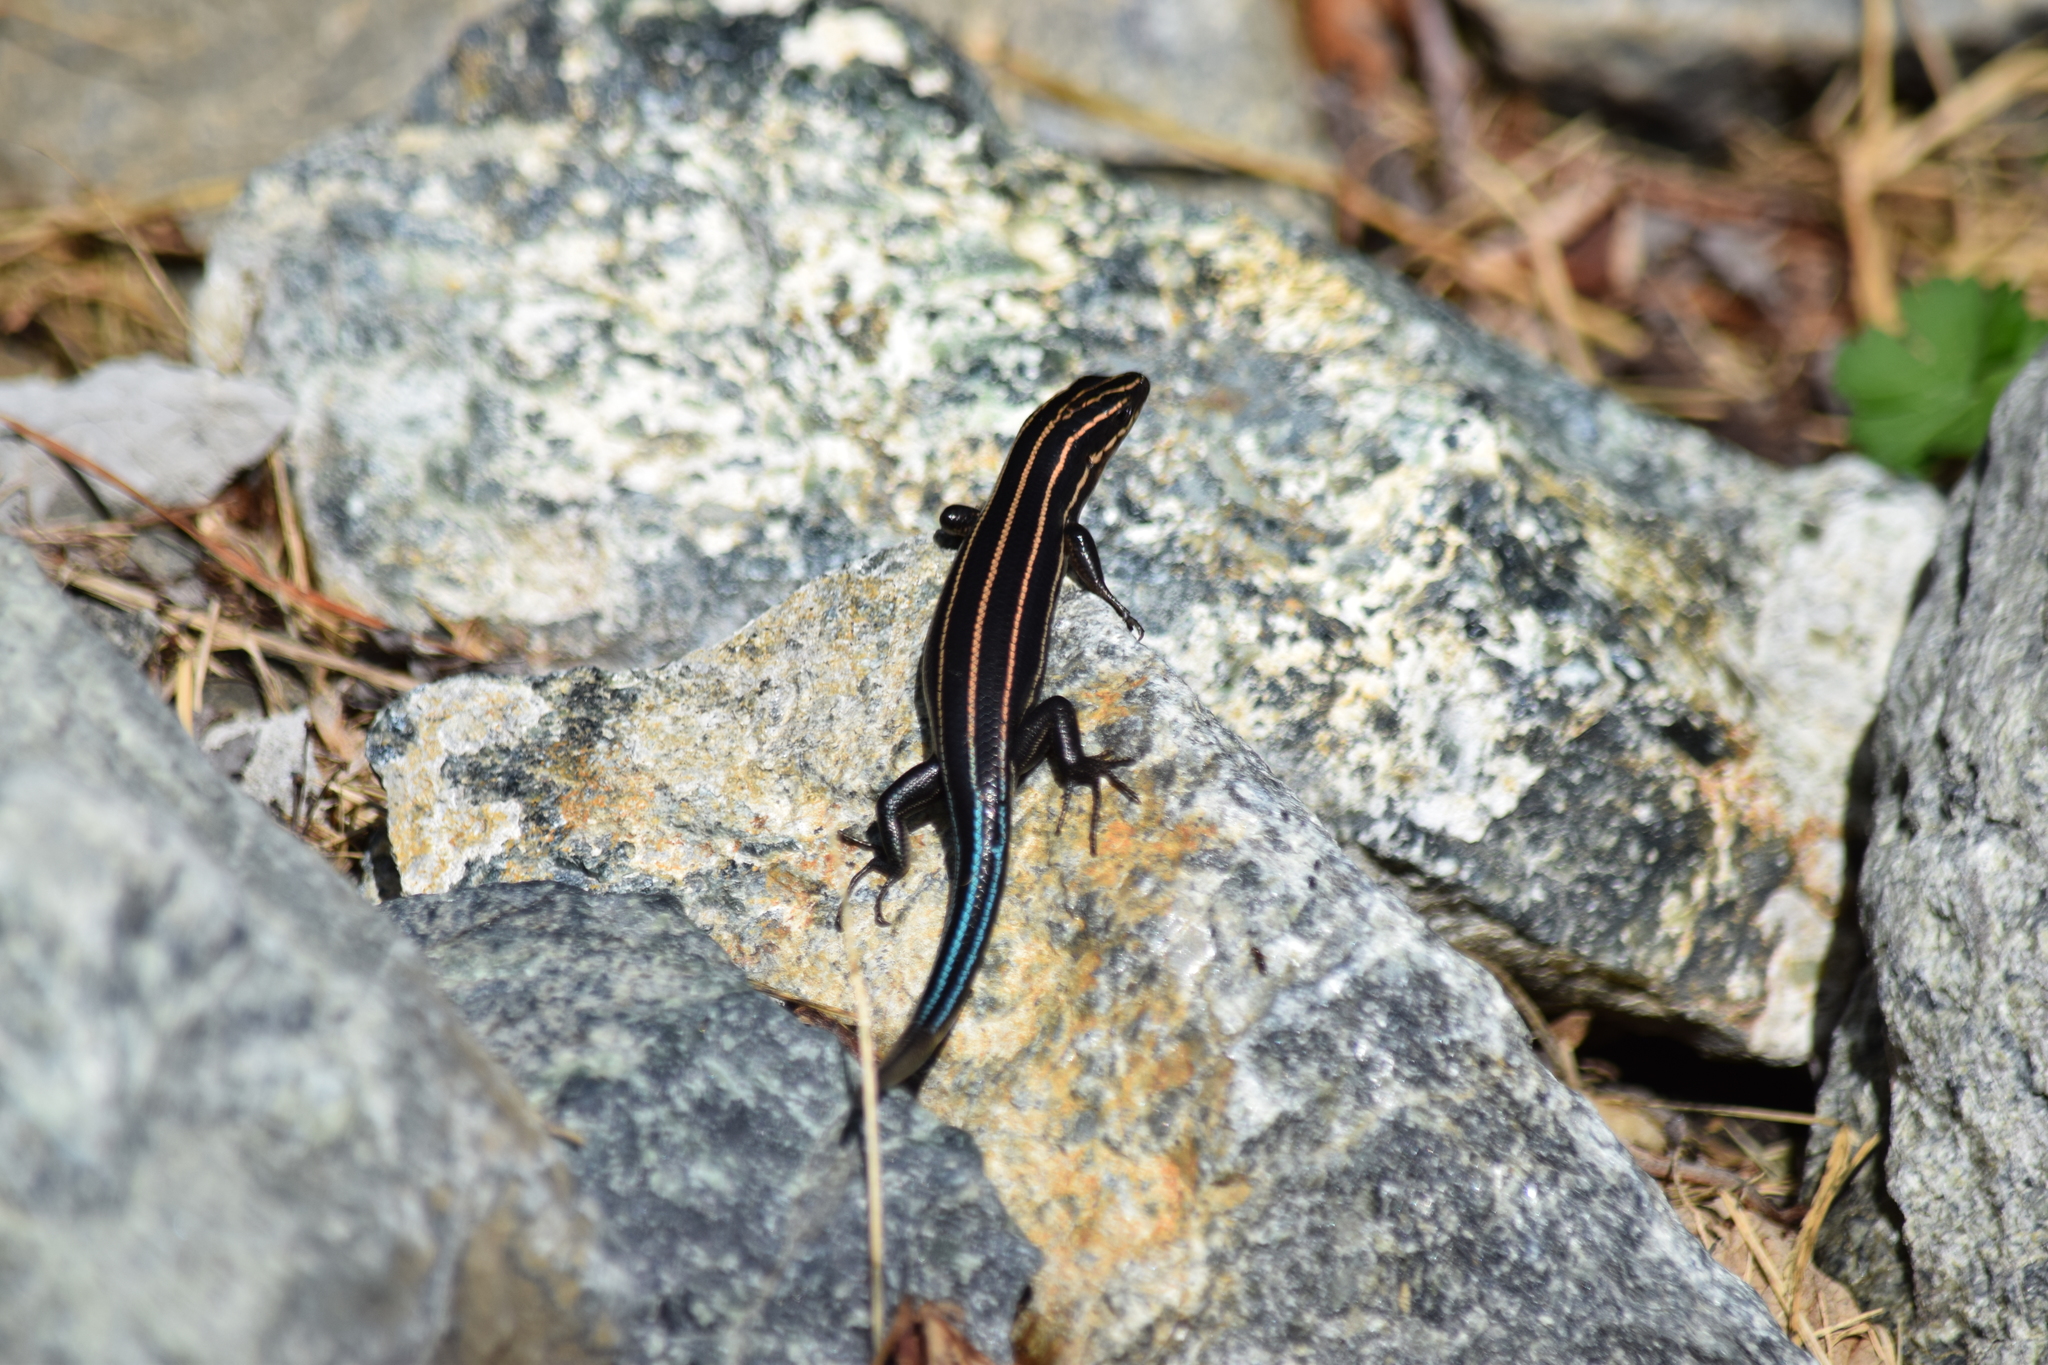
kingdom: Animalia
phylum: Chordata
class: Squamata
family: Scincidae
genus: Plestiodon
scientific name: Plestiodon fasciatus
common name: Five-lined skink
